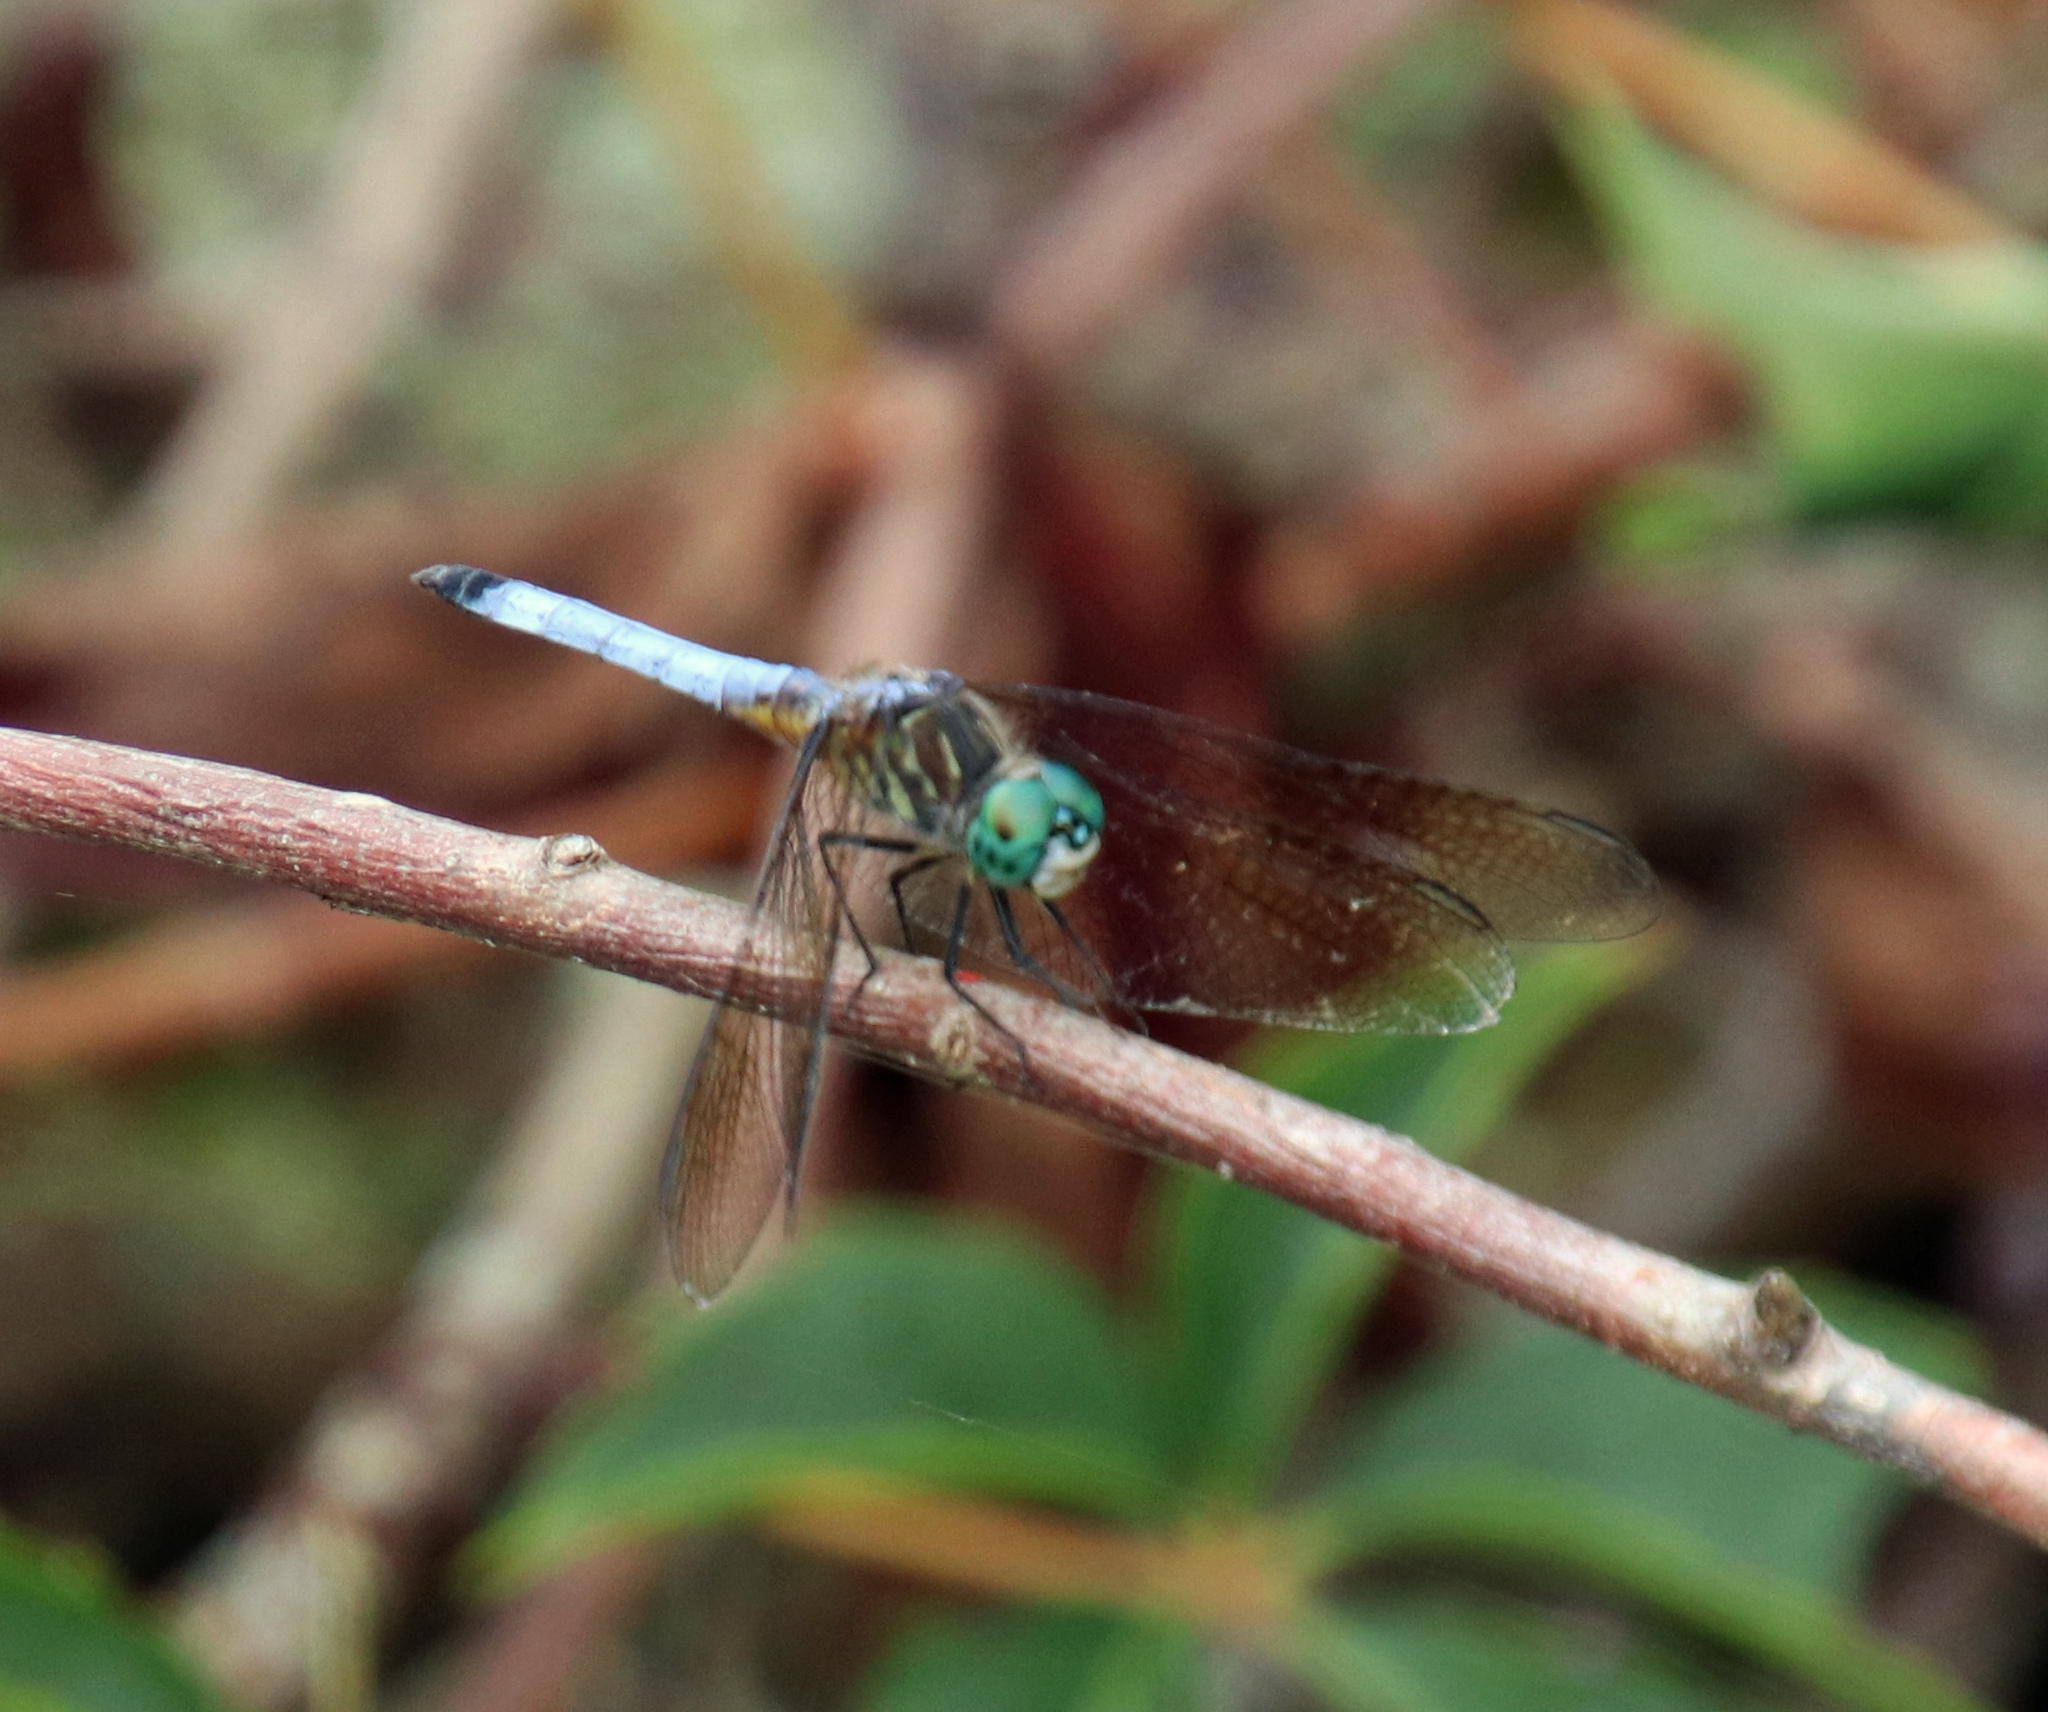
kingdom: Animalia
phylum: Arthropoda
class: Insecta
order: Odonata
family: Libellulidae
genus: Pachydiplax
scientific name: Pachydiplax longipennis
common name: Blue dasher
